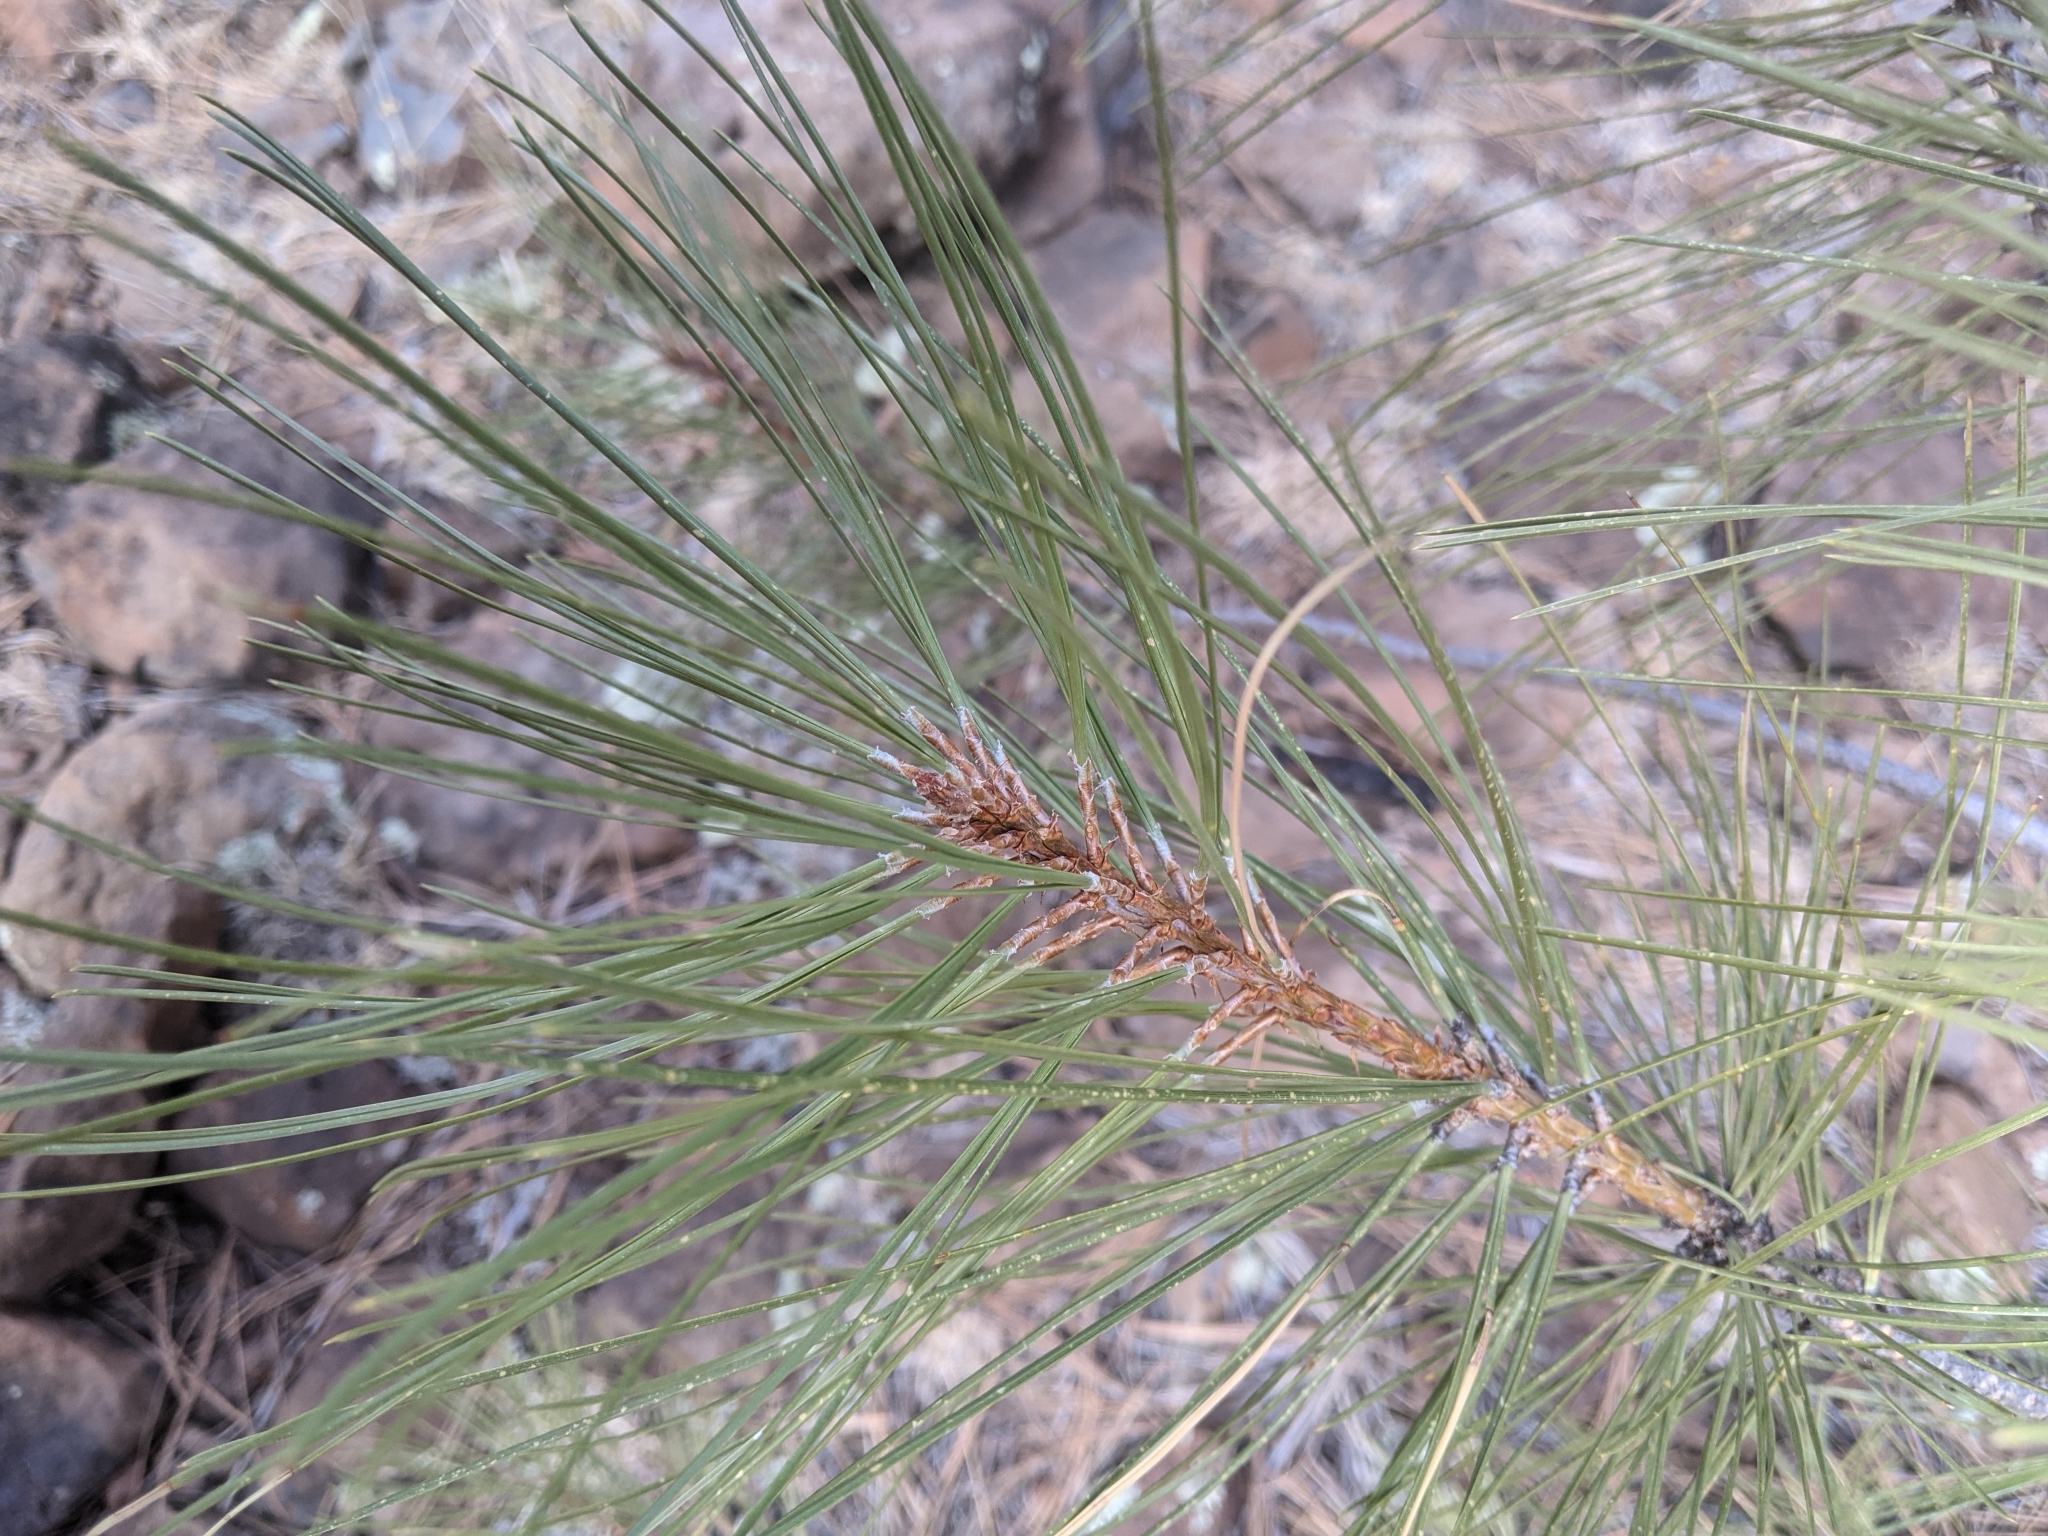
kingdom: Plantae
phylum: Tracheophyta
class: Pinopsida
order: Pinales
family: Pinaceae
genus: Pinus
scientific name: Pinus ponderosa
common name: Western yellow-pine
